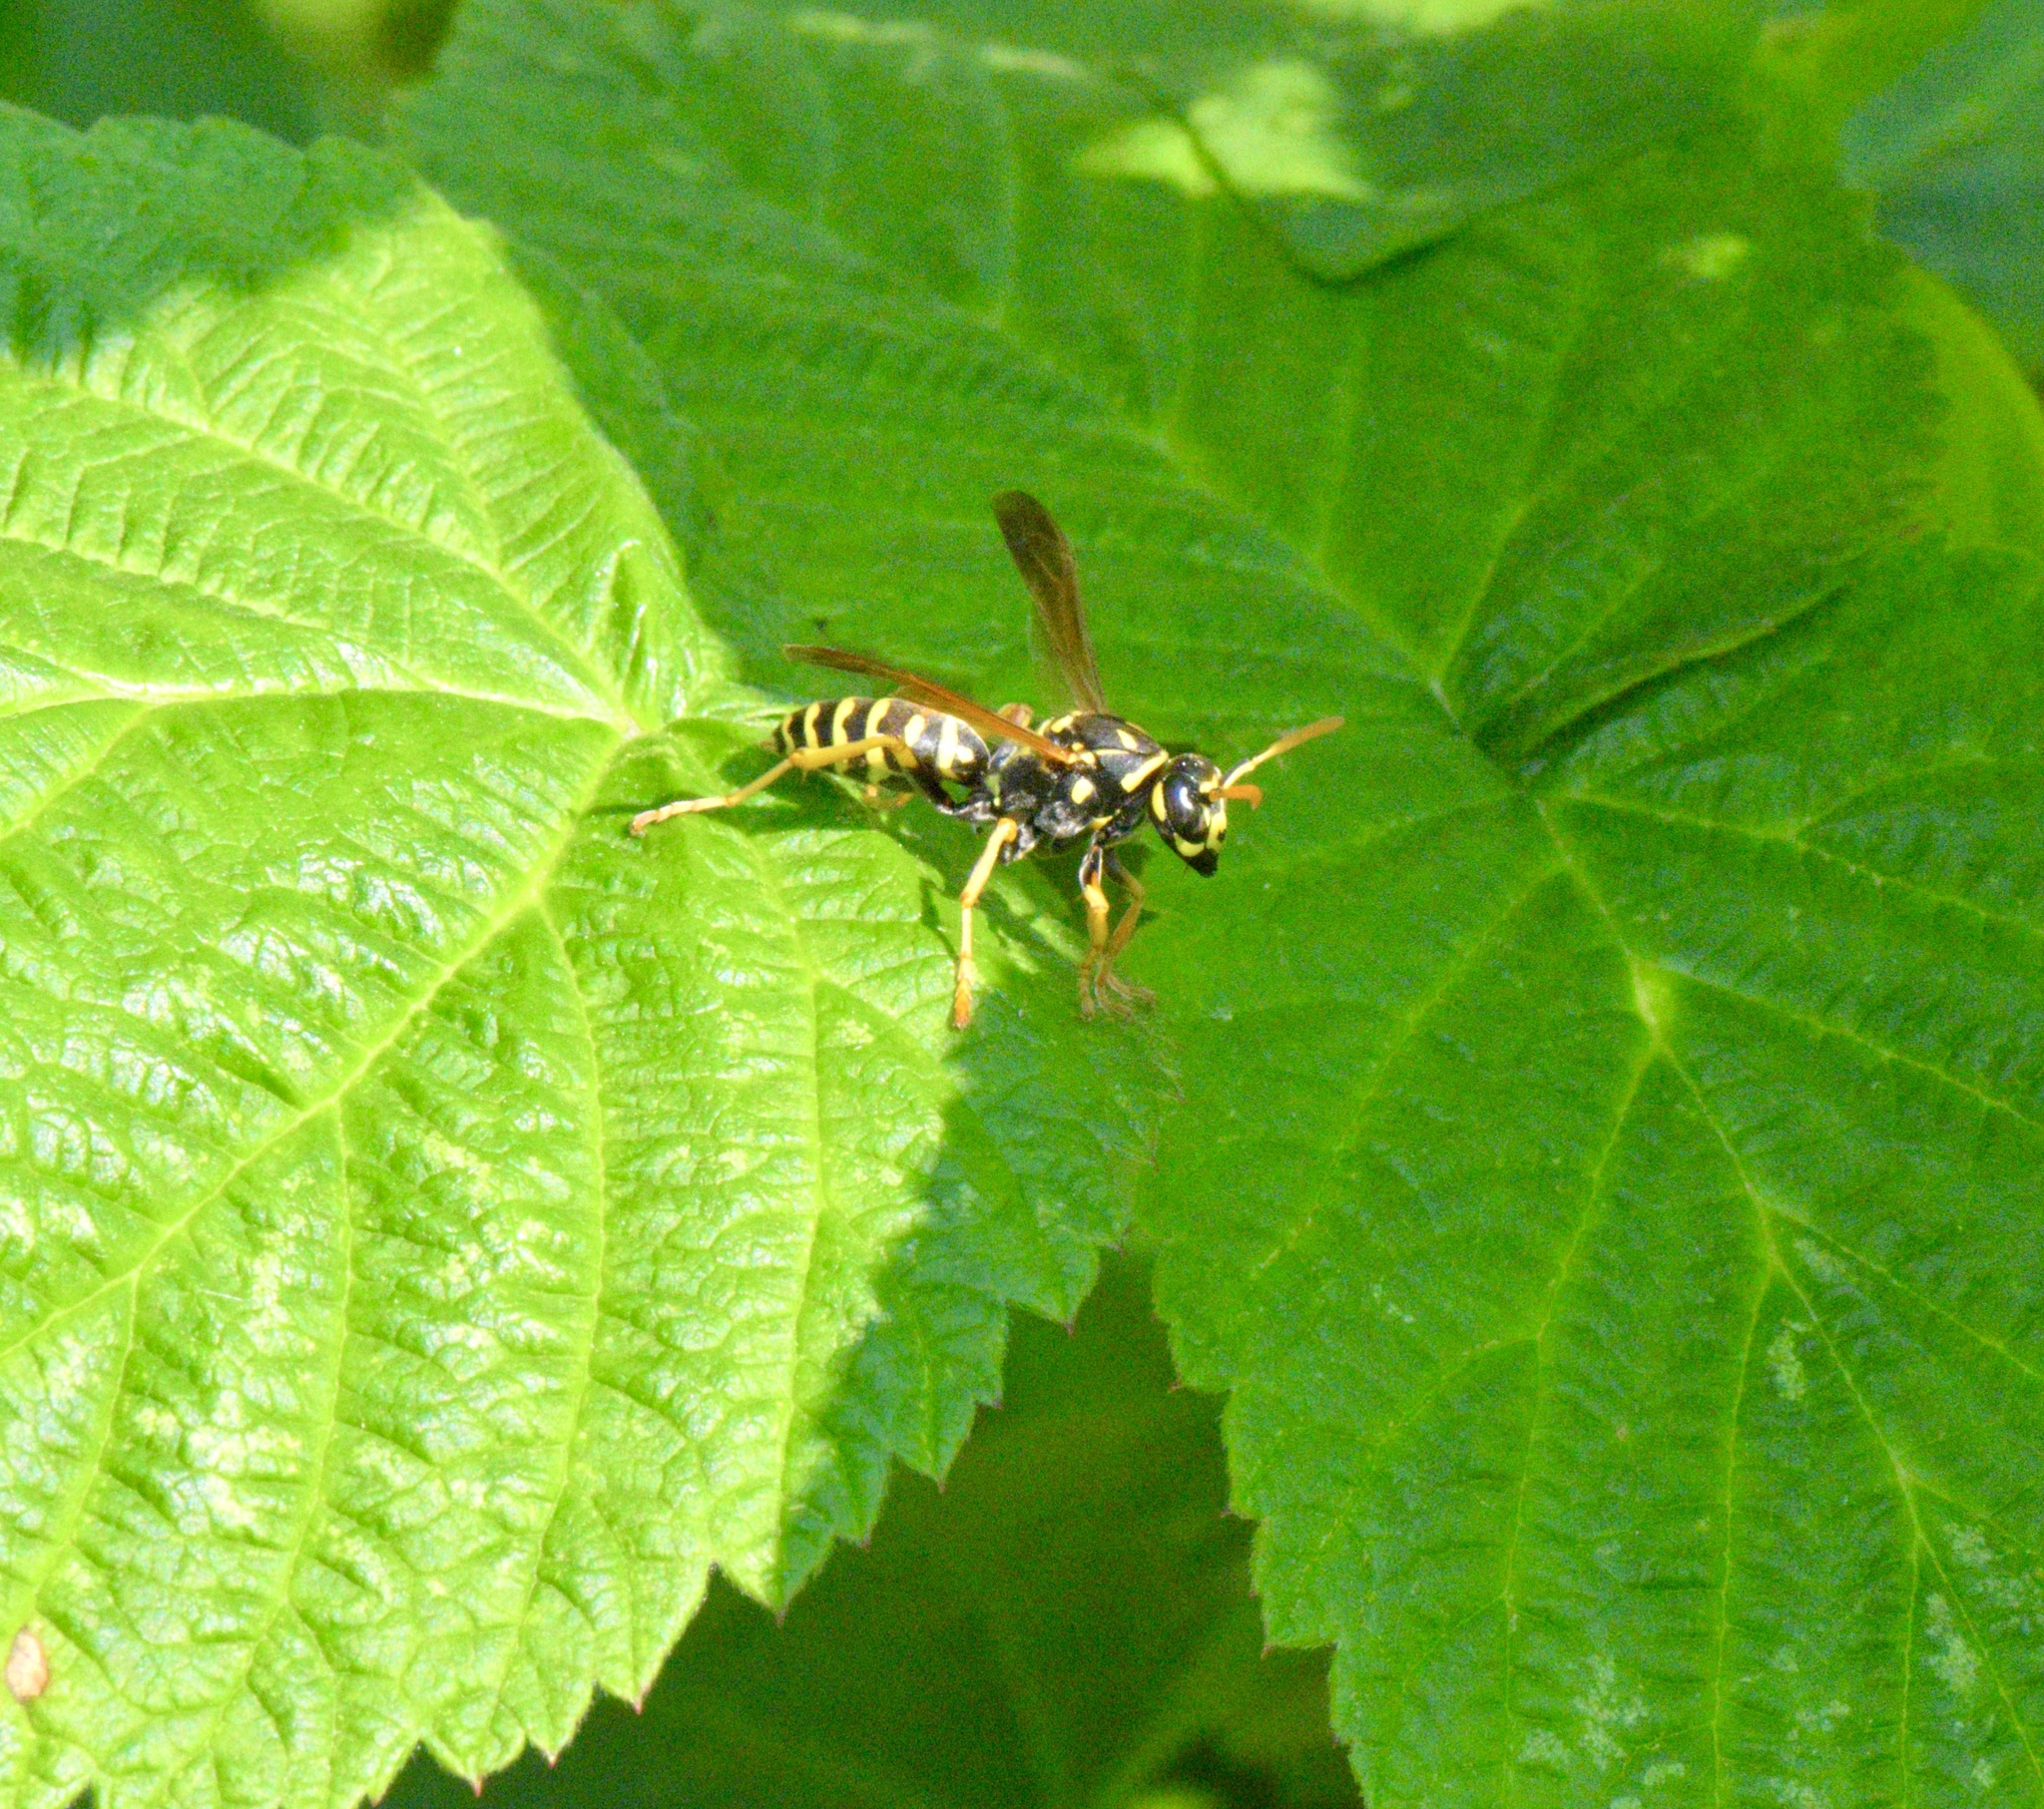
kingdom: Animalia
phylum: Arthropoda
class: Insecta
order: Hymenoptera
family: Eumenidae
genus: Polistes
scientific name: Polistes dominula
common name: Paper wasp
